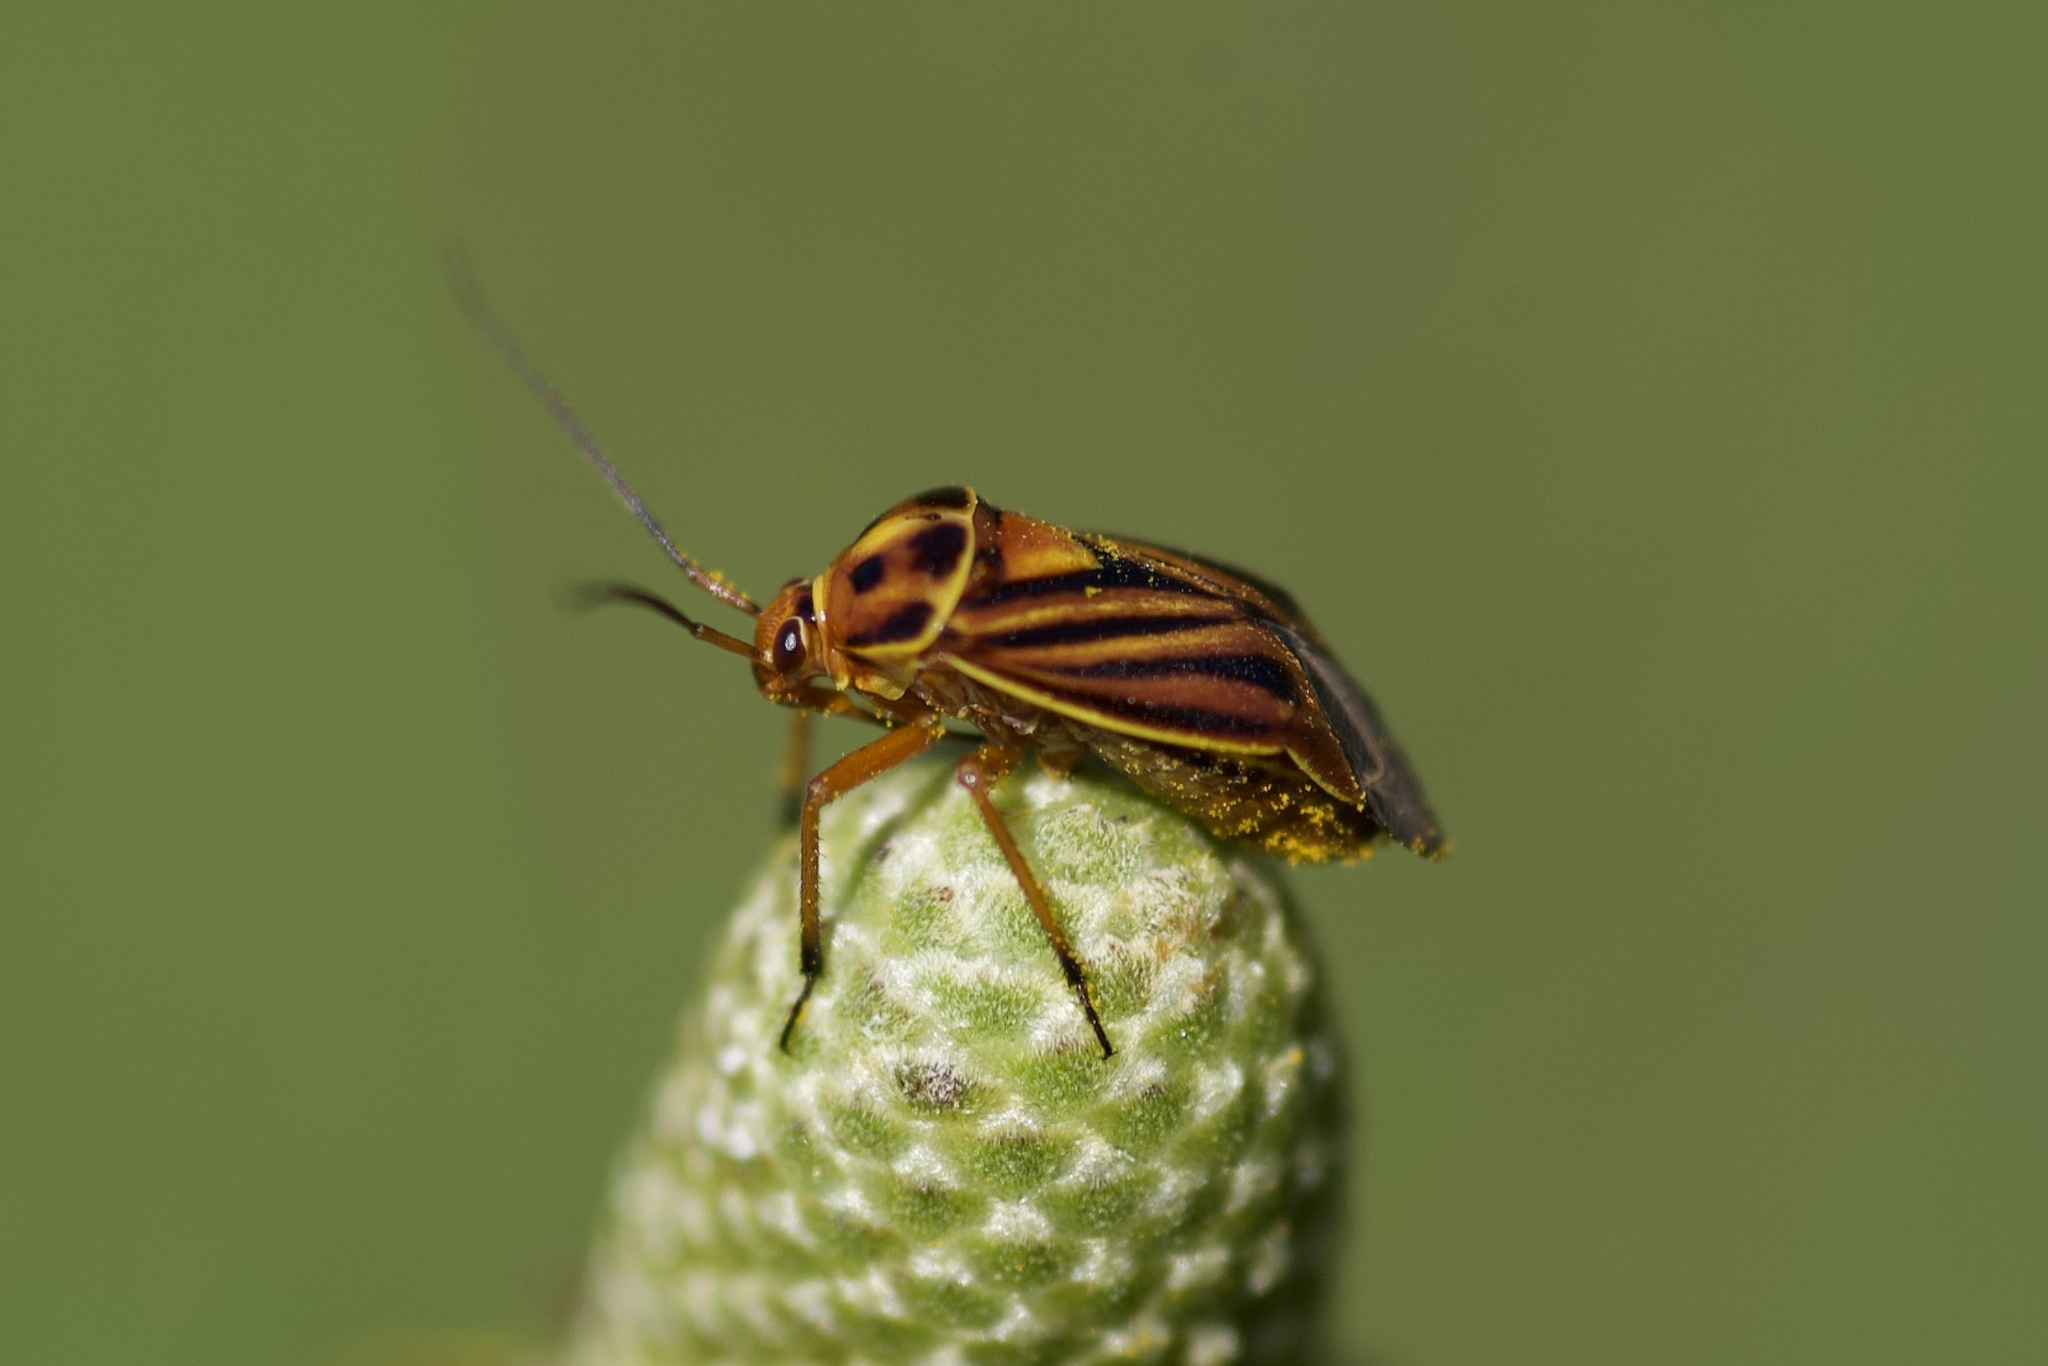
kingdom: Animalia
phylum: Arthropoda
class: Insecta
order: Hemiptera
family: Miridae
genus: Calocoris
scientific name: Calocoris barberi
